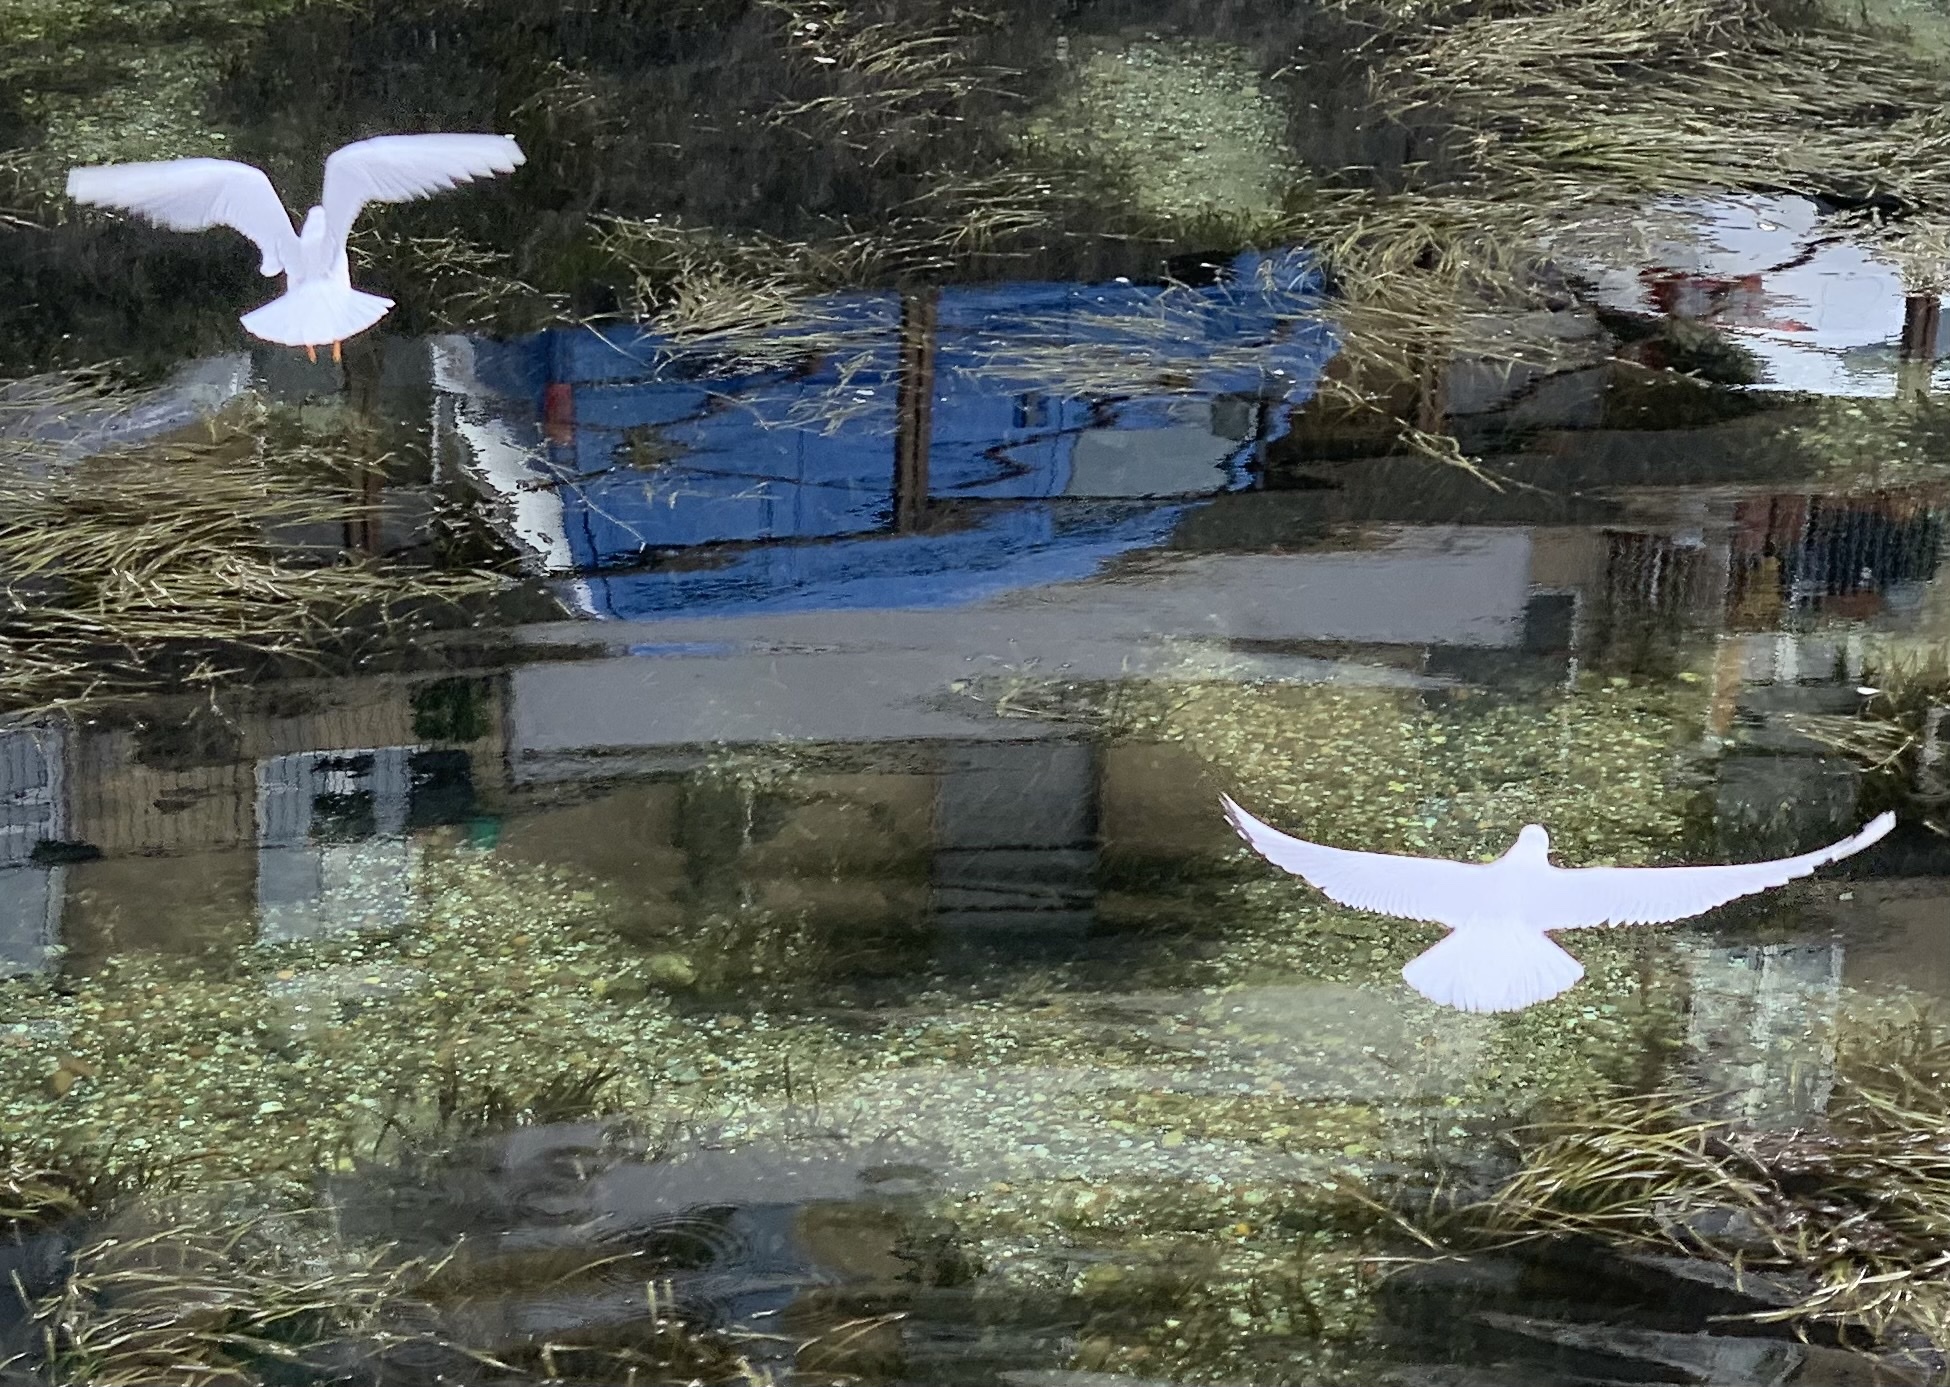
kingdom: Animalia
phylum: Chordata
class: Aves
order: Charadriiformes
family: Laridae
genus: Chroicocephalus
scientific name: Chroicocephalus ridibundus
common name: Black-headed gull
